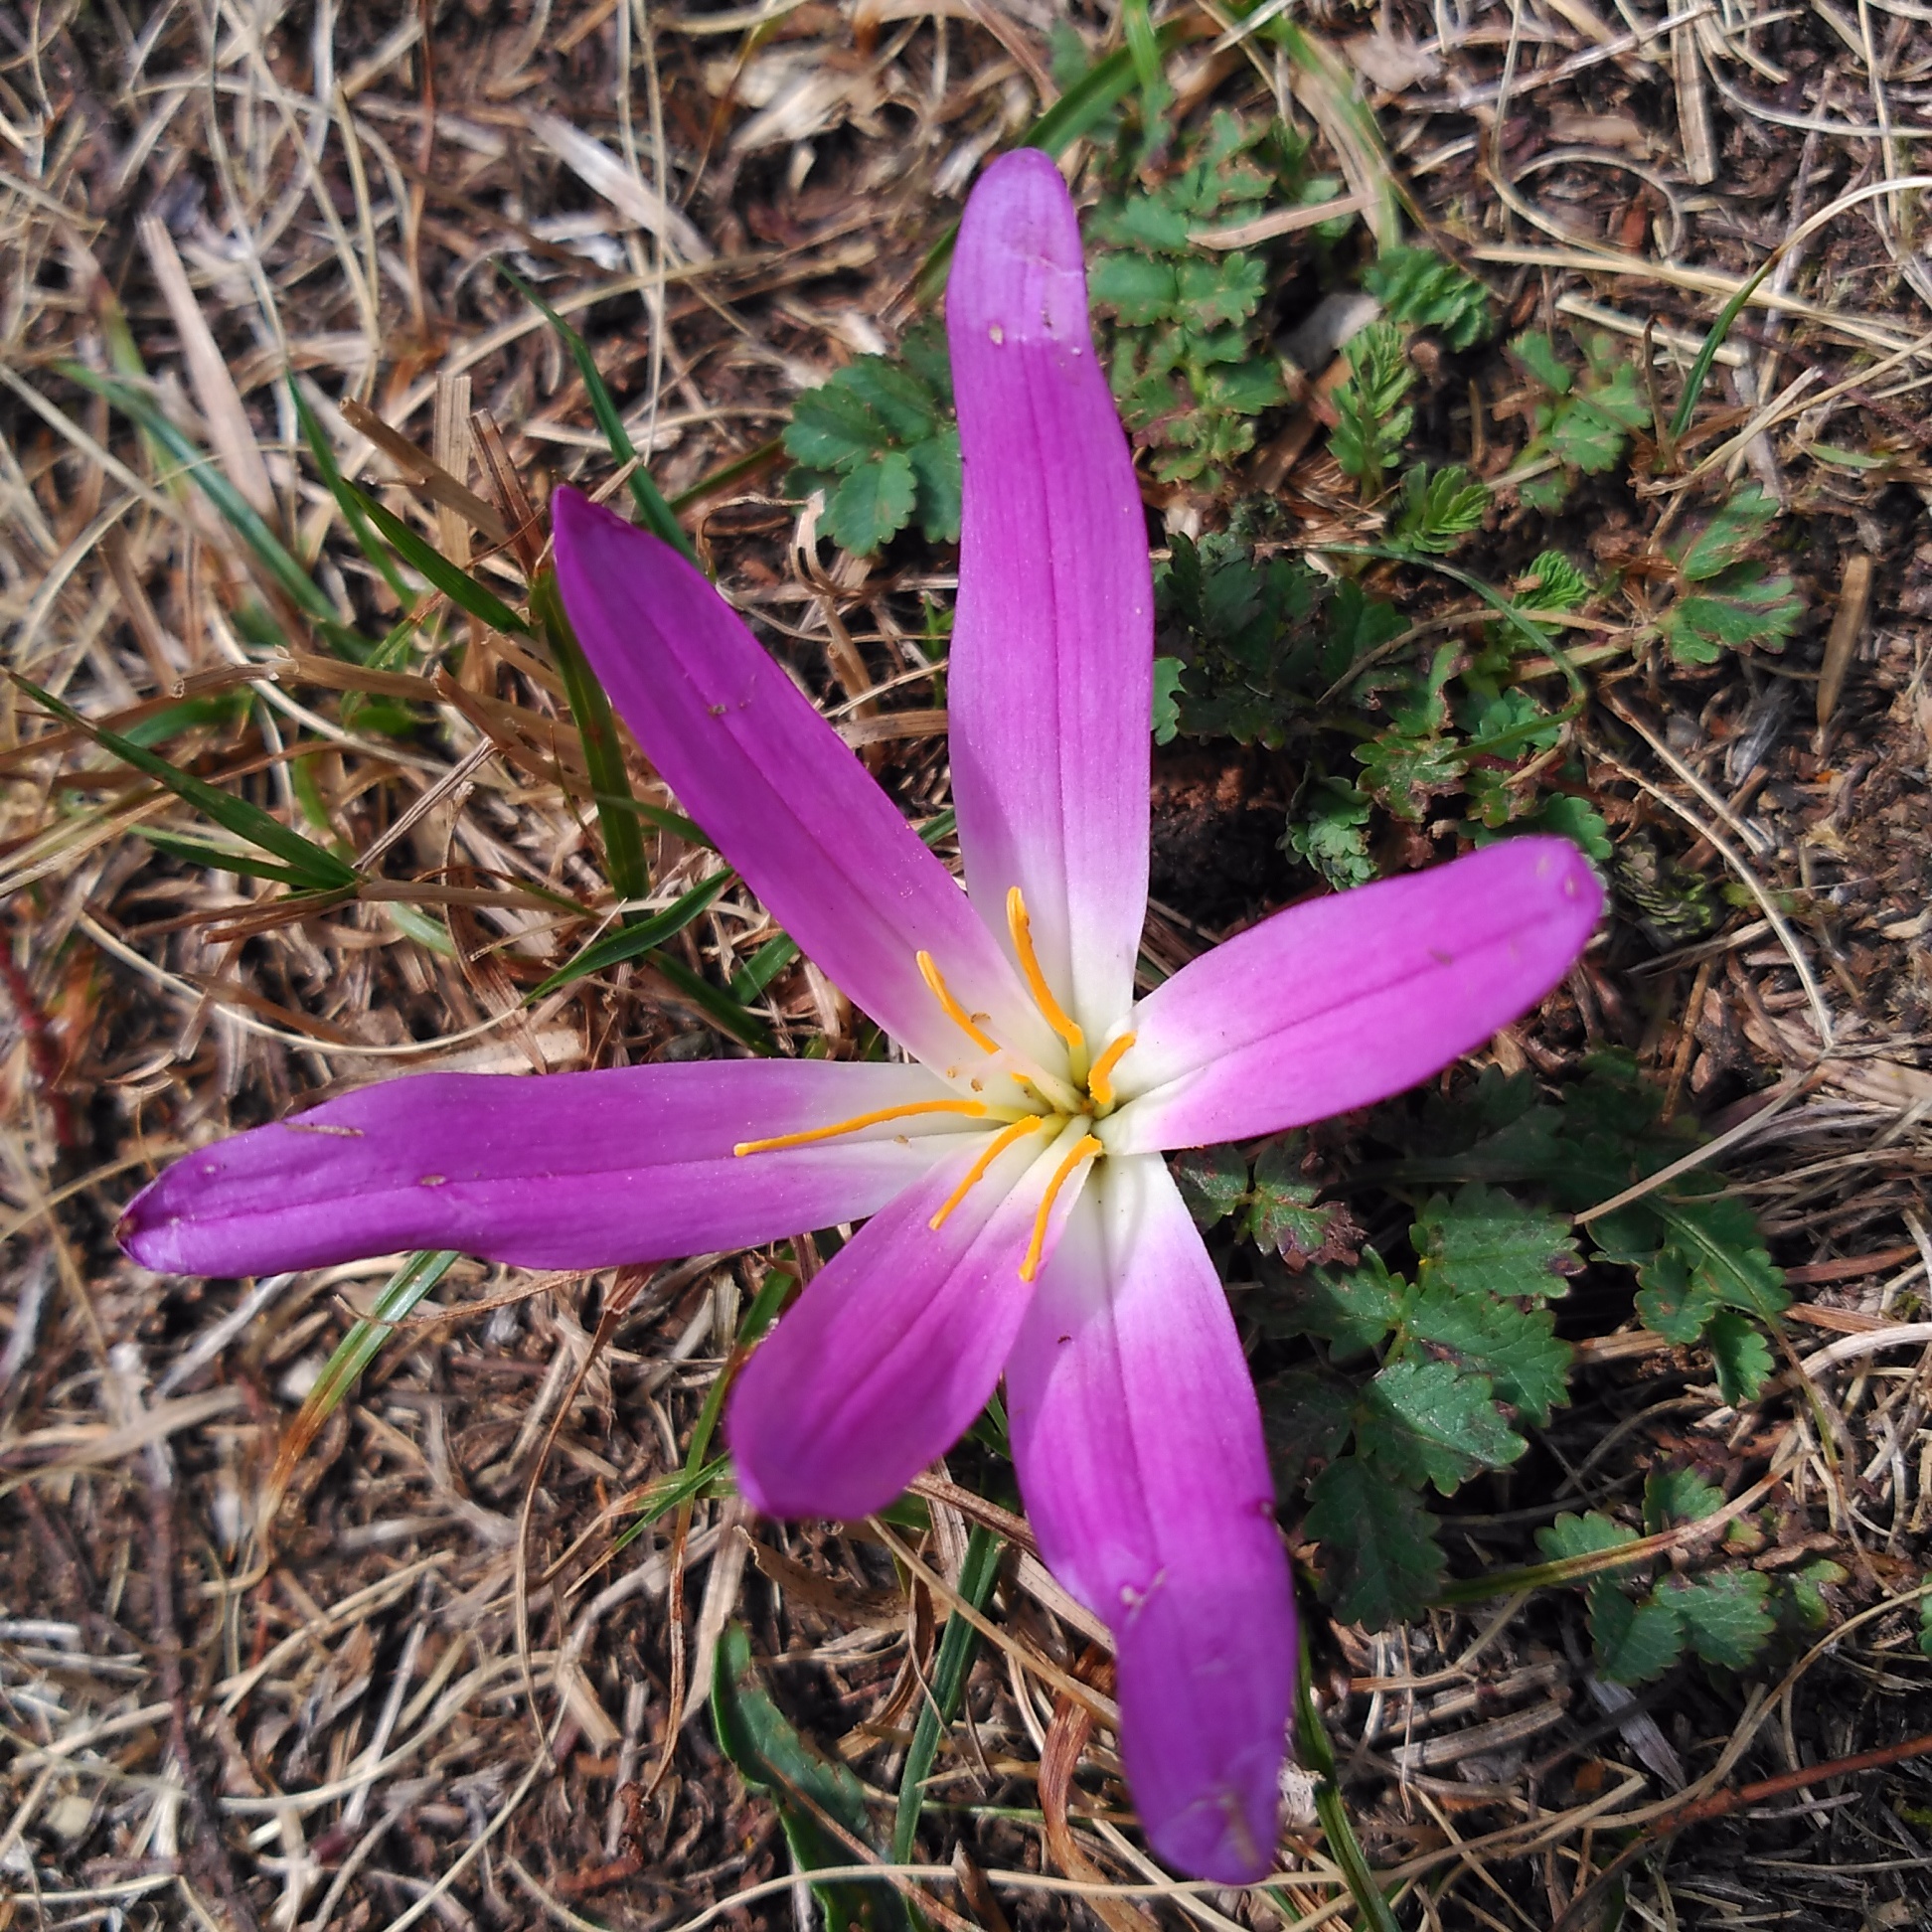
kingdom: Plantae
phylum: Tracheophyta
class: Liliopsida
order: Liliales
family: Colchicaceae
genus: Colchicum
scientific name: Colchicum montanum
